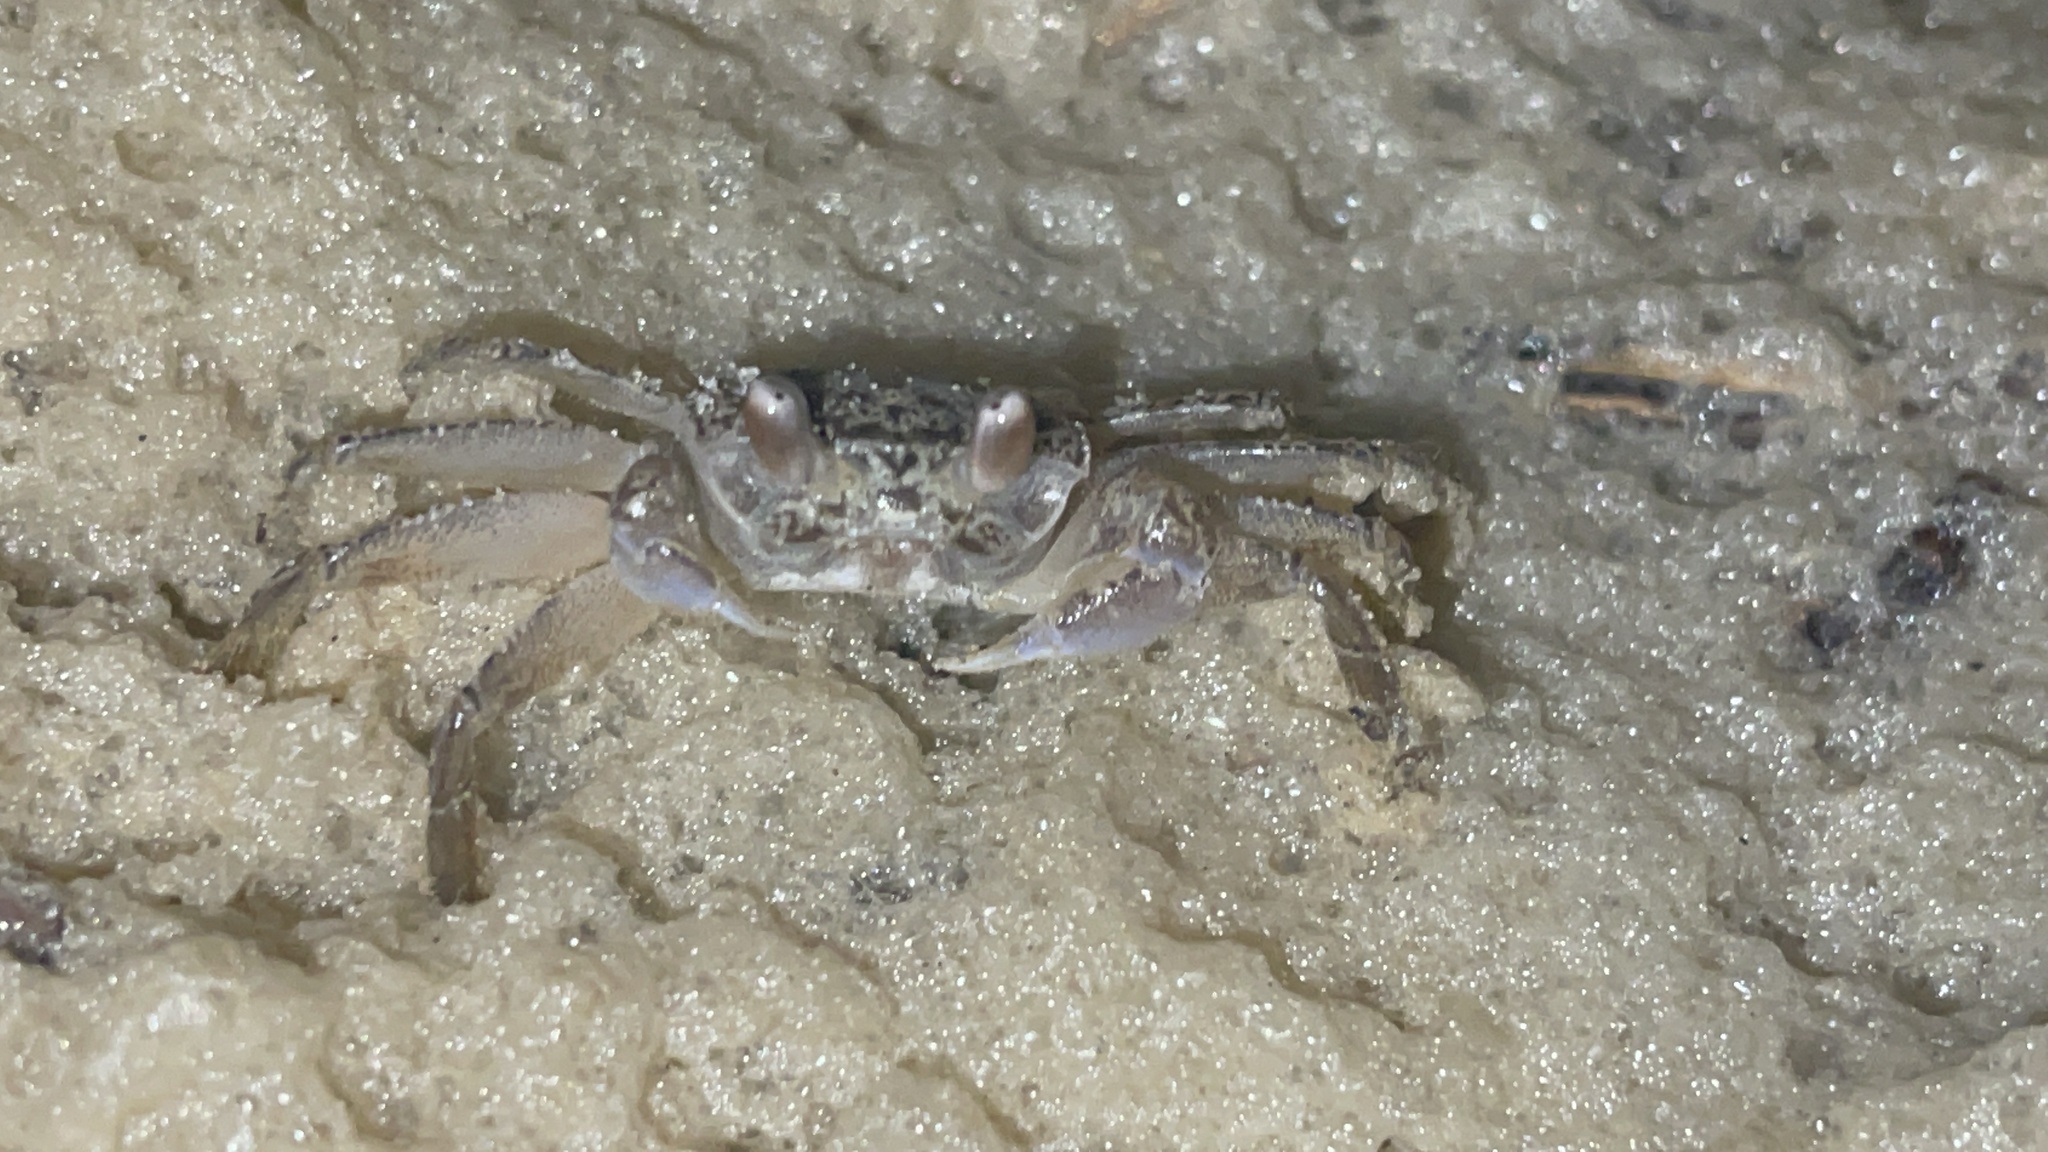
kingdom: Animalia
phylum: Arthropoda
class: Malacostraca
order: Decapoda
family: Ocypodidae
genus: Ocypode
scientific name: Ocypode quadrata
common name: Ghost crab
